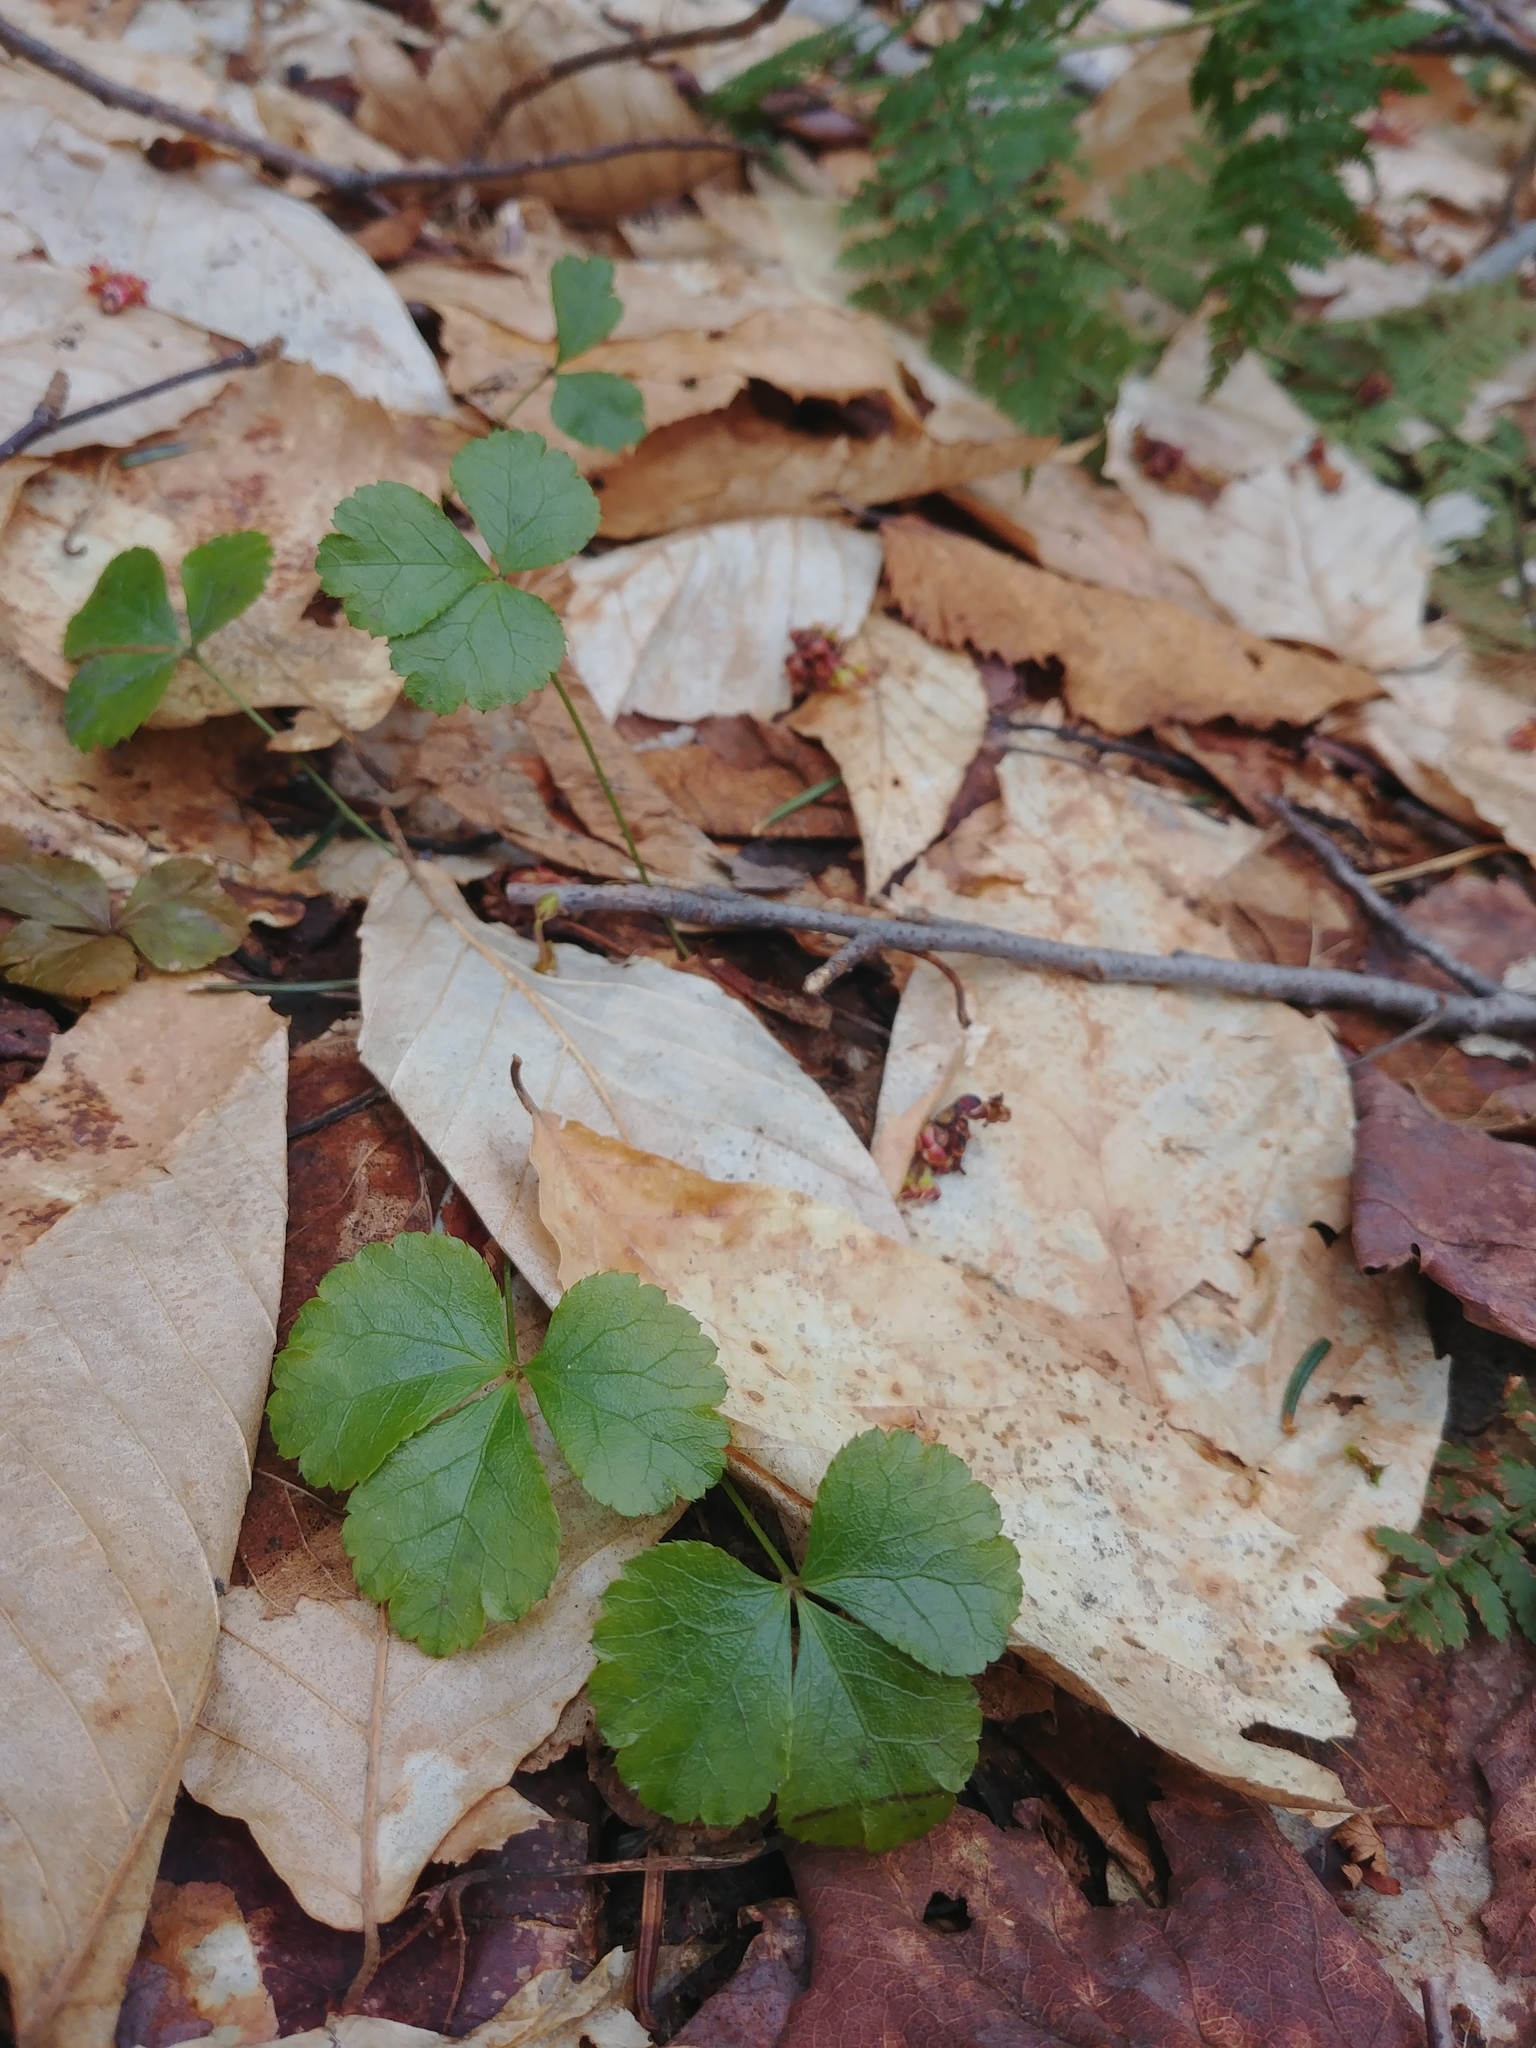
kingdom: Plantae
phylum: Tracheophyta
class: Magnoliopsida
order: Ranunculales
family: Ranunculaceae
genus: Coptis
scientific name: Coptis trifolia
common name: Canker-root
